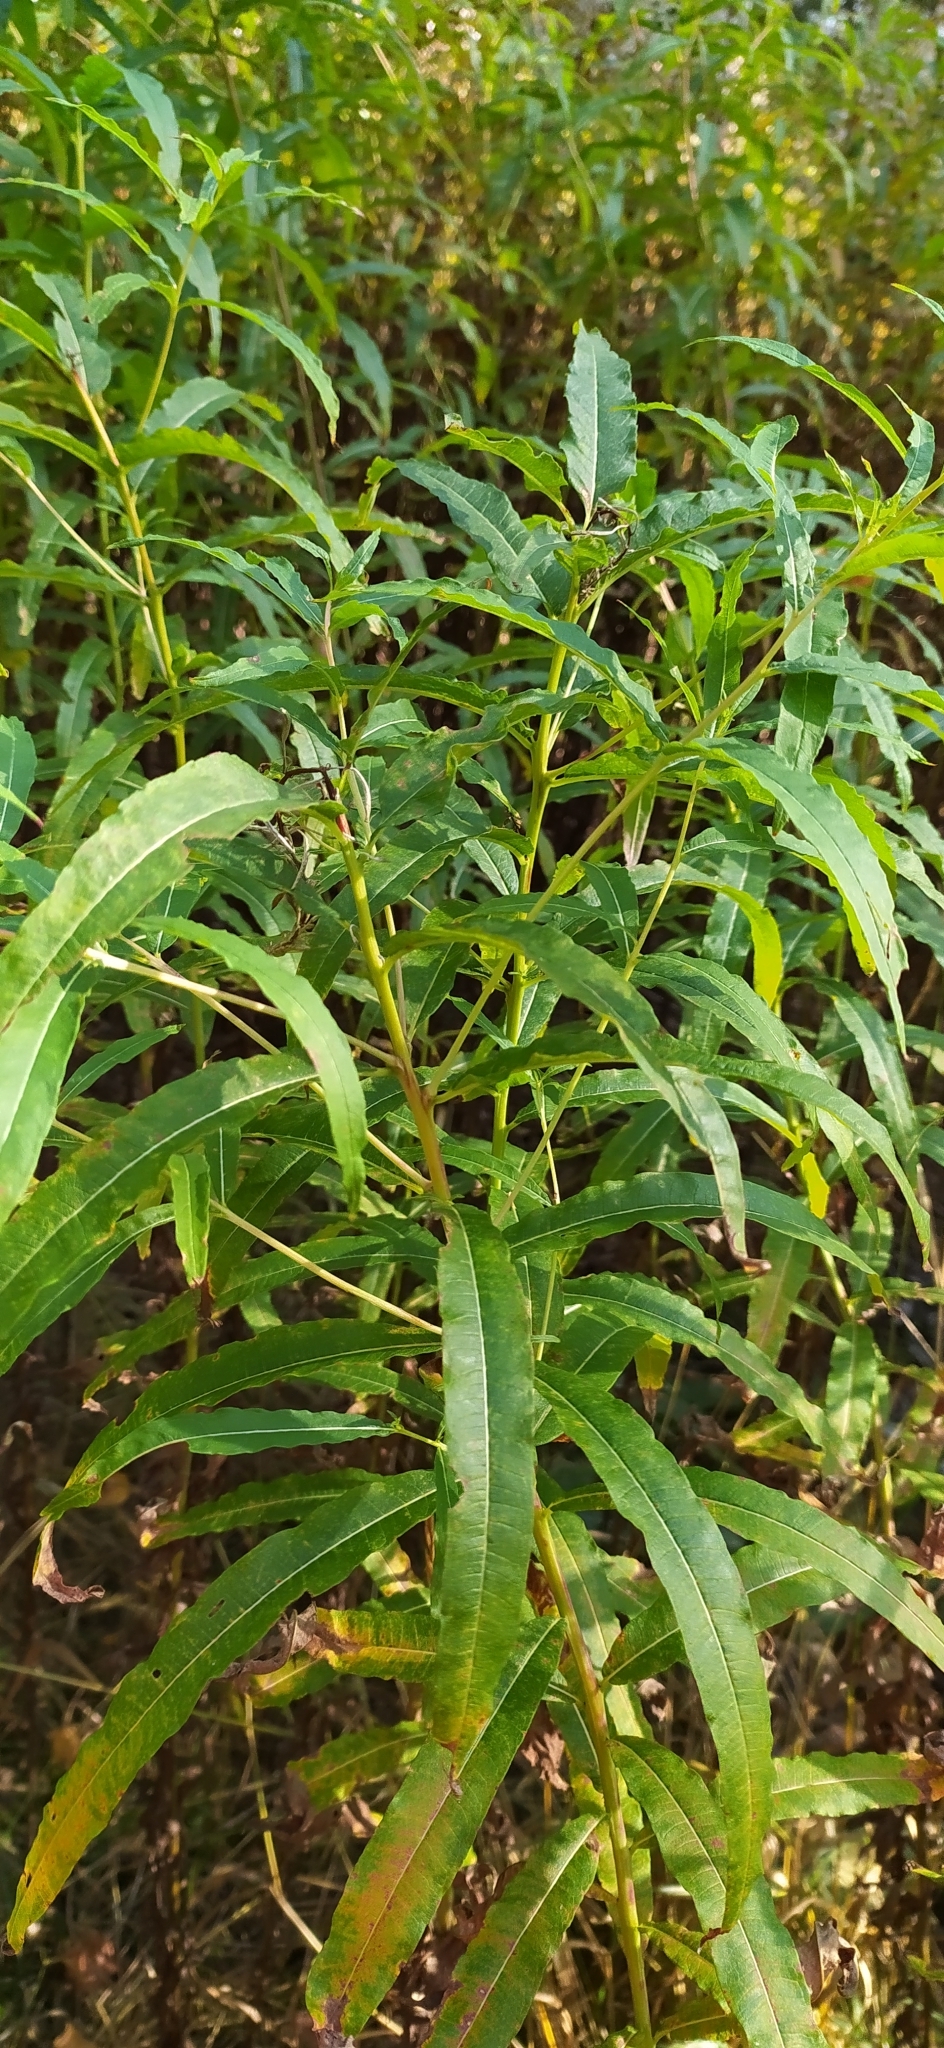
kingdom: Plantae
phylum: Tracheophyta
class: Magnoliopsida
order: Myrtales
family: Onagraceae
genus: Chamaenerion
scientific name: Chamaenerion angustifolium
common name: Fireweed
